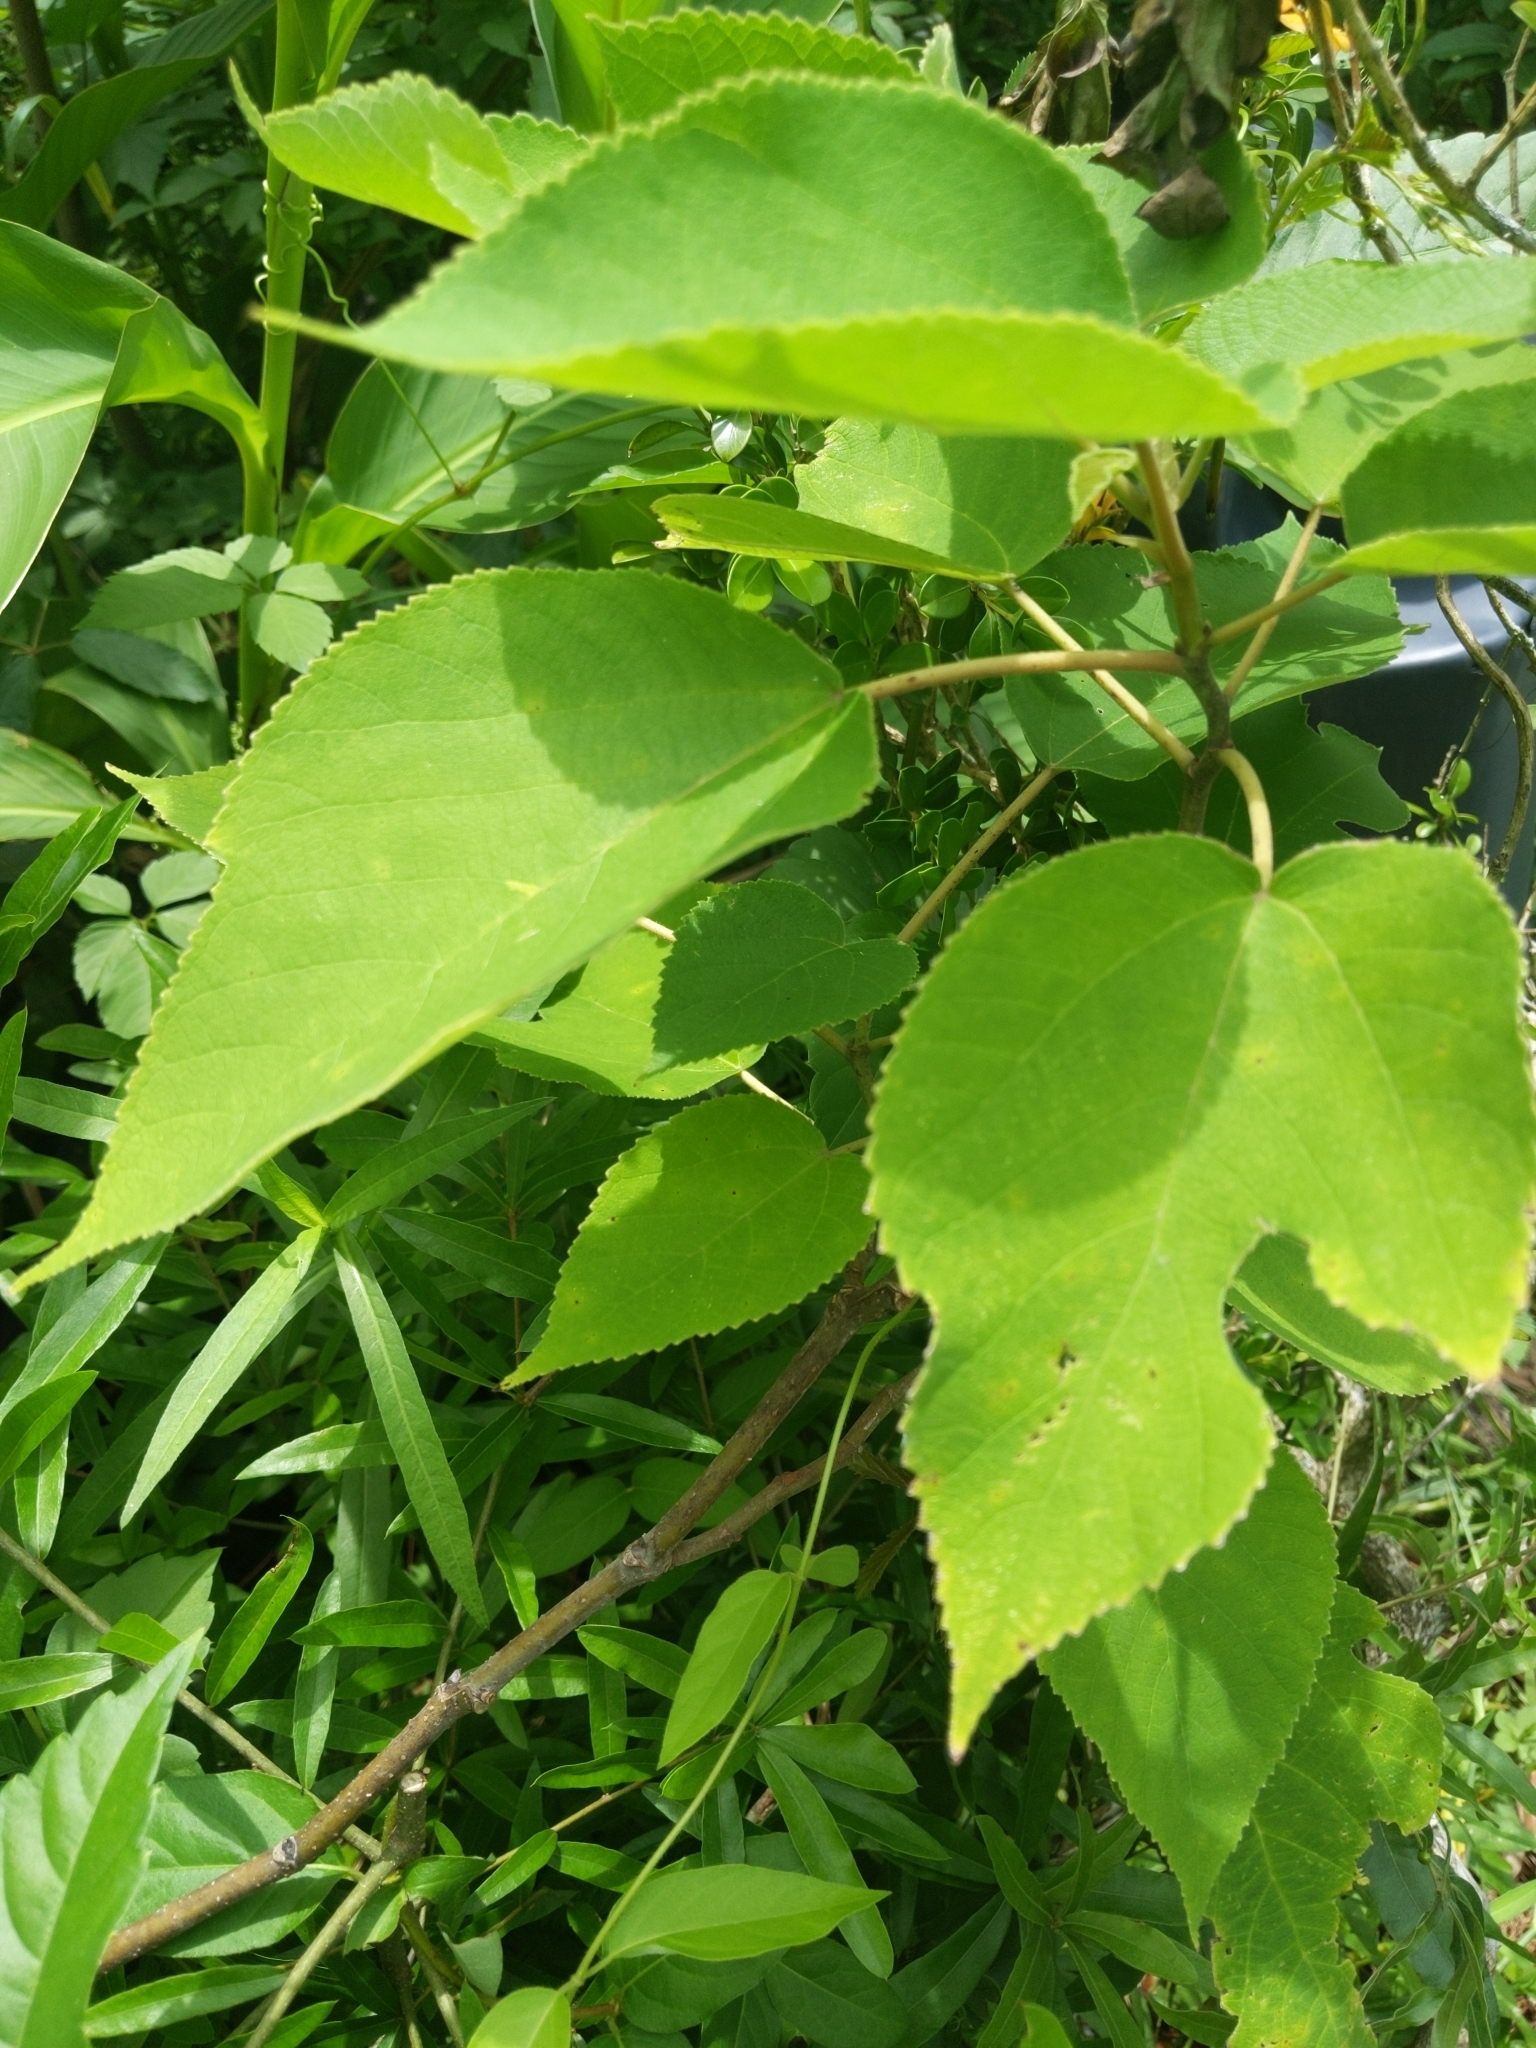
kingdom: Plantae
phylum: Tracheophyta
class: Magnoliopsida
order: Rosales
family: Moraceae
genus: Broussonetia
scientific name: Broussonetia papyrifera
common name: Paper mulberry
